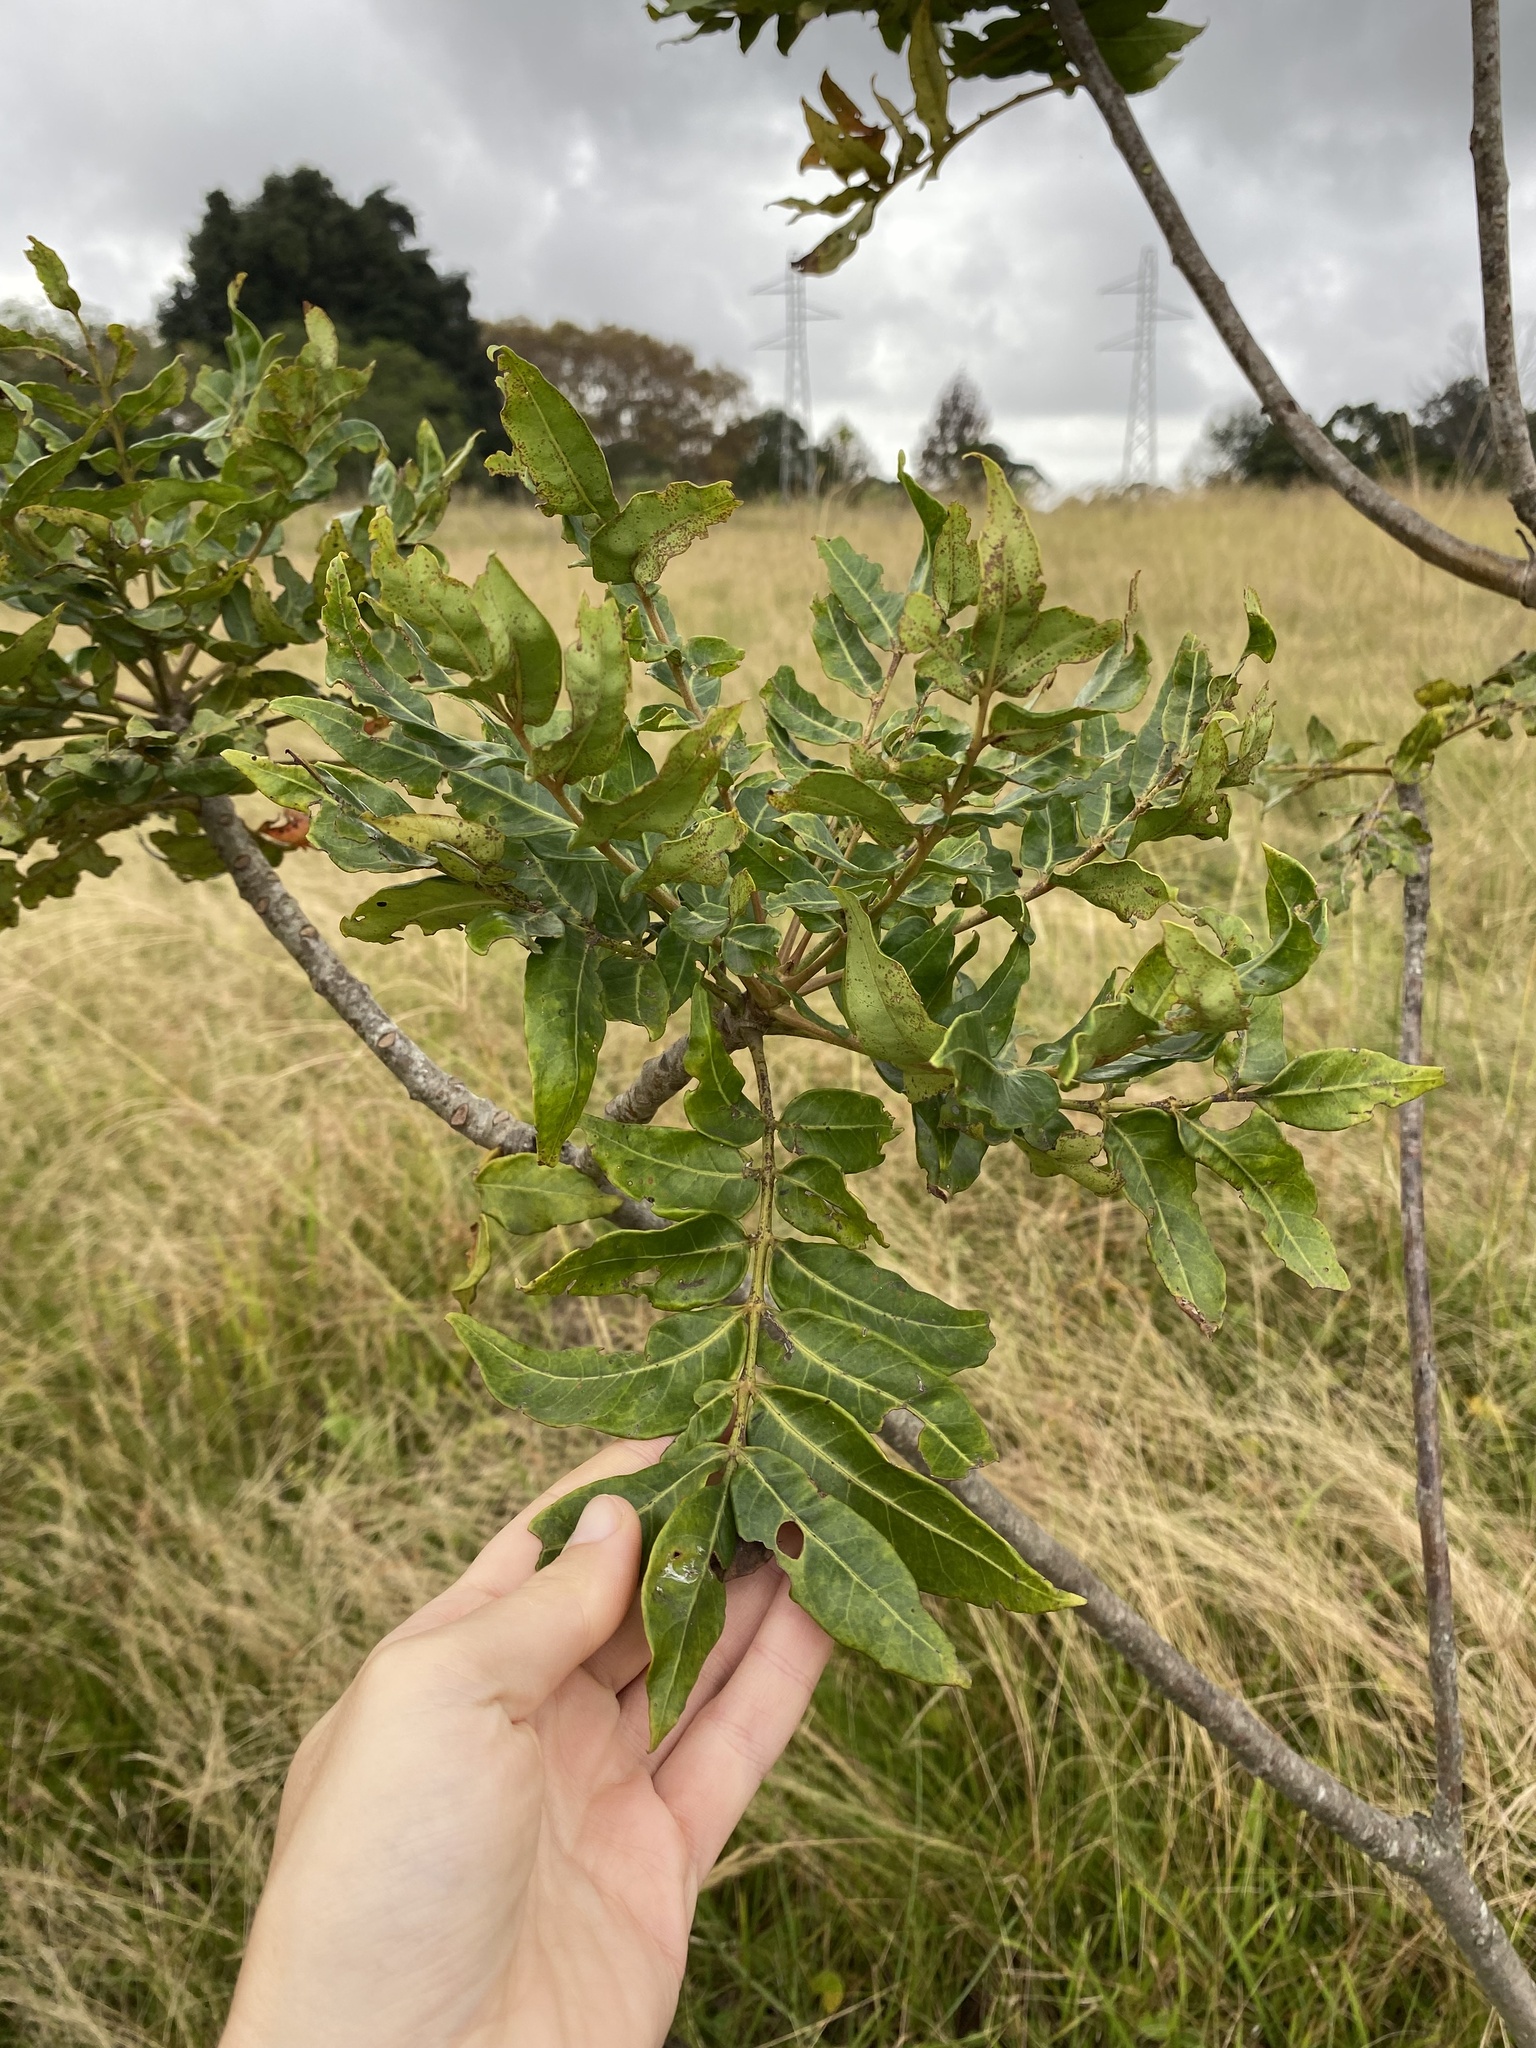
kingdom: Plantae
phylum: Tracheophyta
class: Magnoliopsida
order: Sapindales
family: Anacardiaceae
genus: Harpephyllum
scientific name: Harpephyllum caffrum
